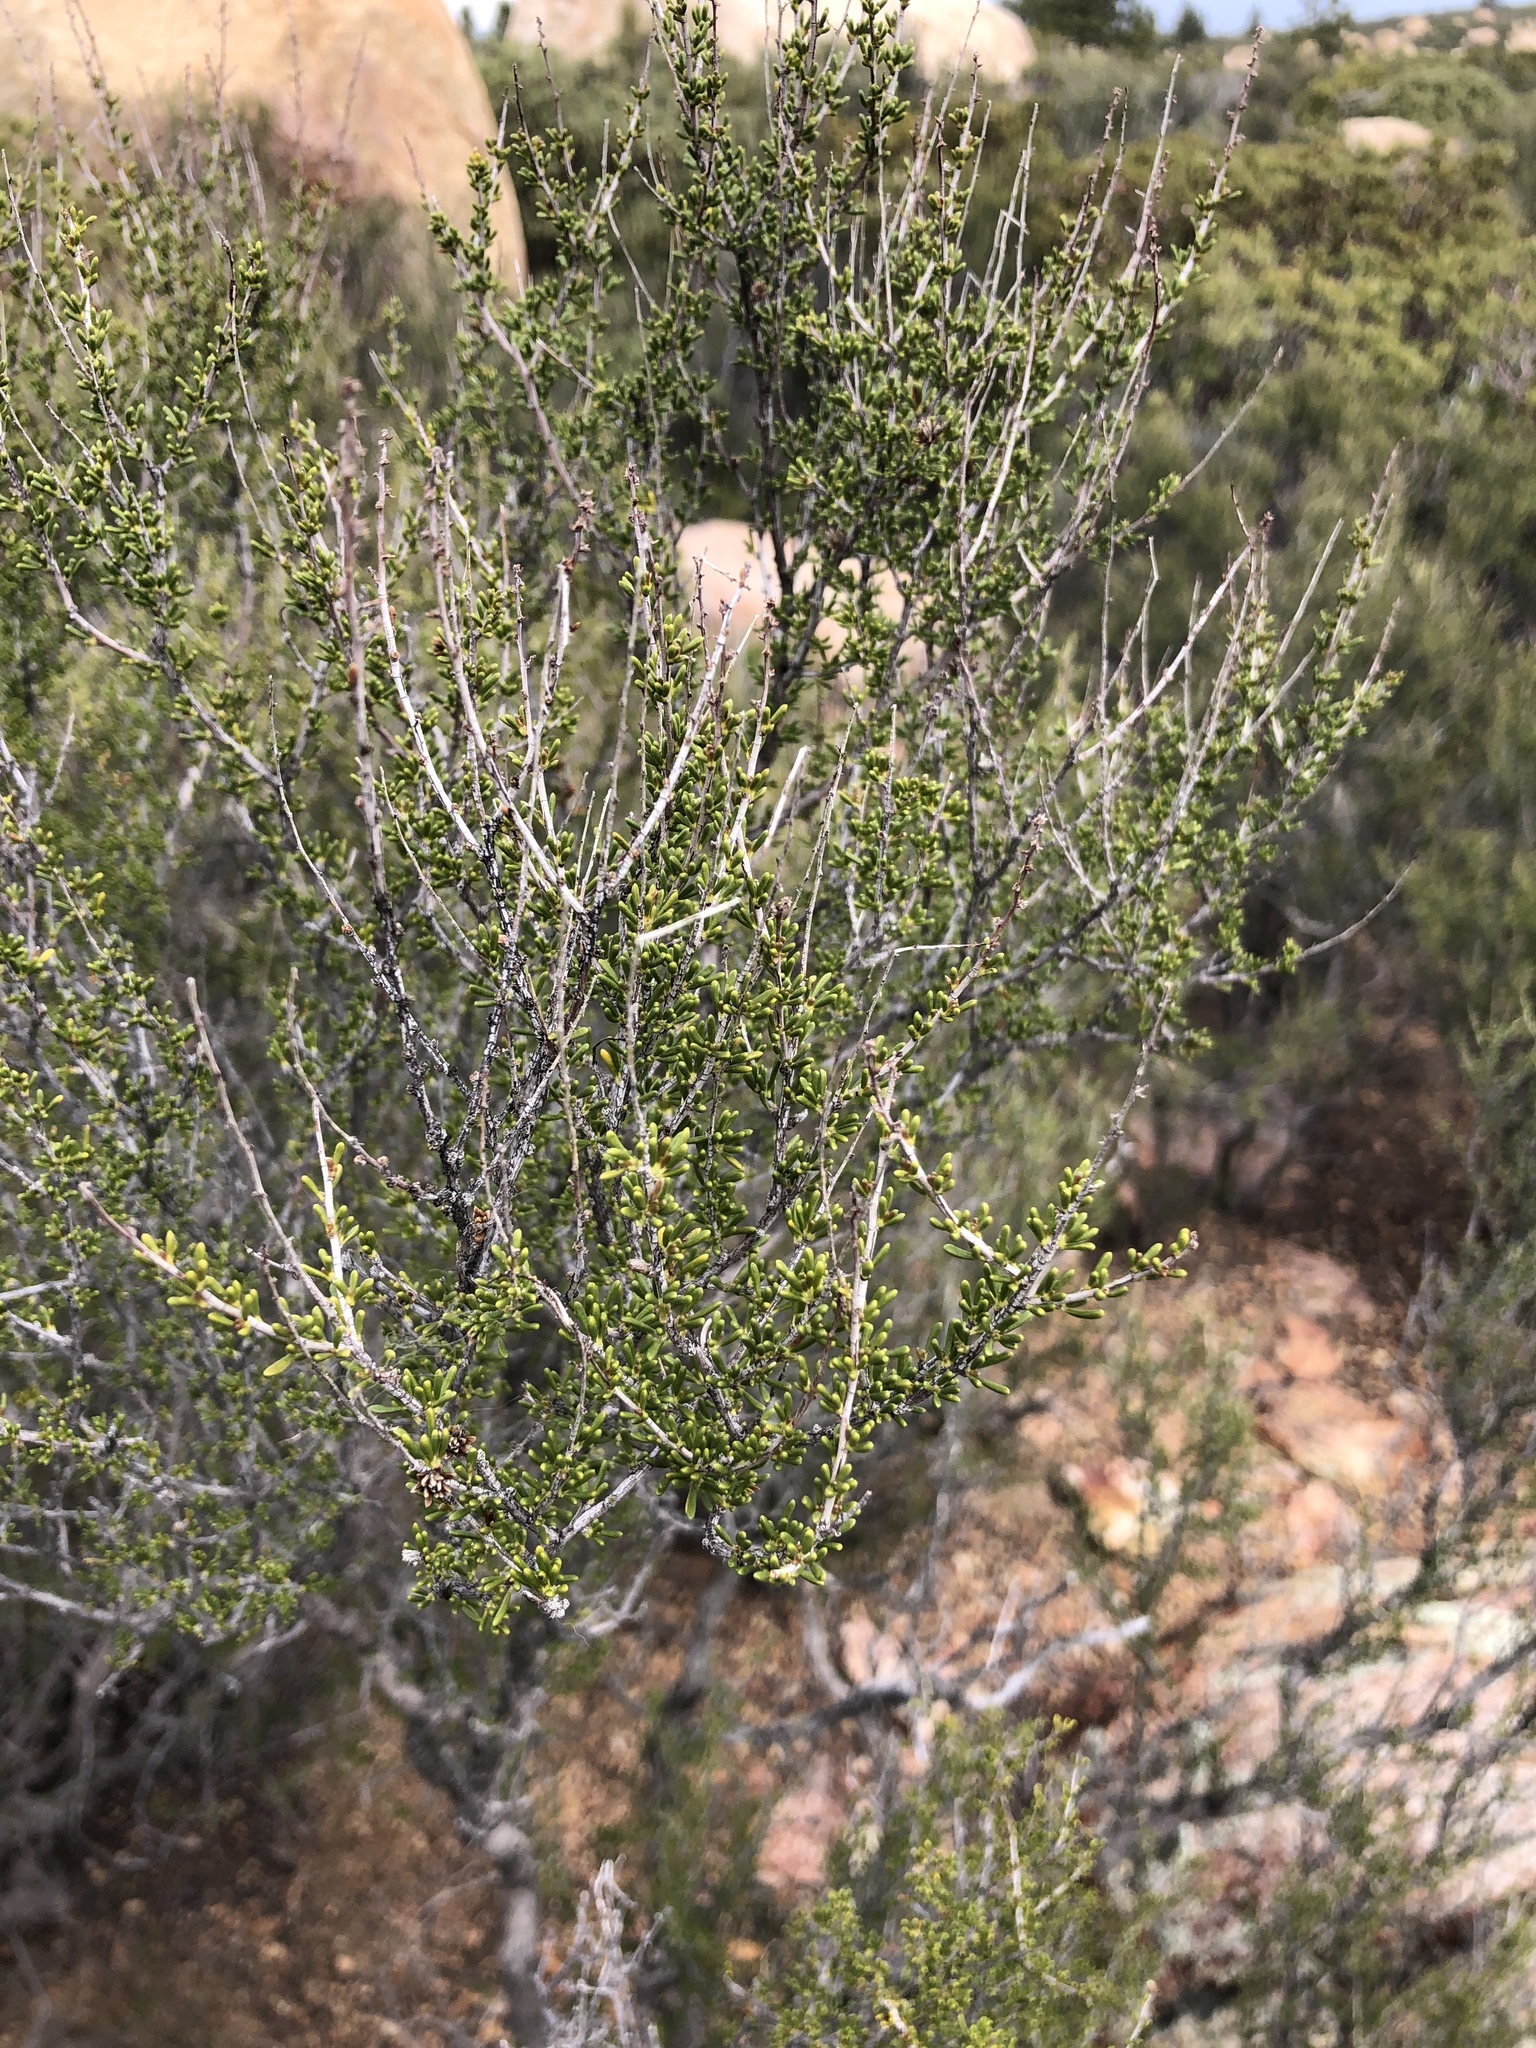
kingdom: Plantae
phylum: Tracheophyta
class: Magnoliopsida
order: Rosales
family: Rosaceae
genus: Adenostoma
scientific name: Adenostoma fasciculatum
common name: Chamise
